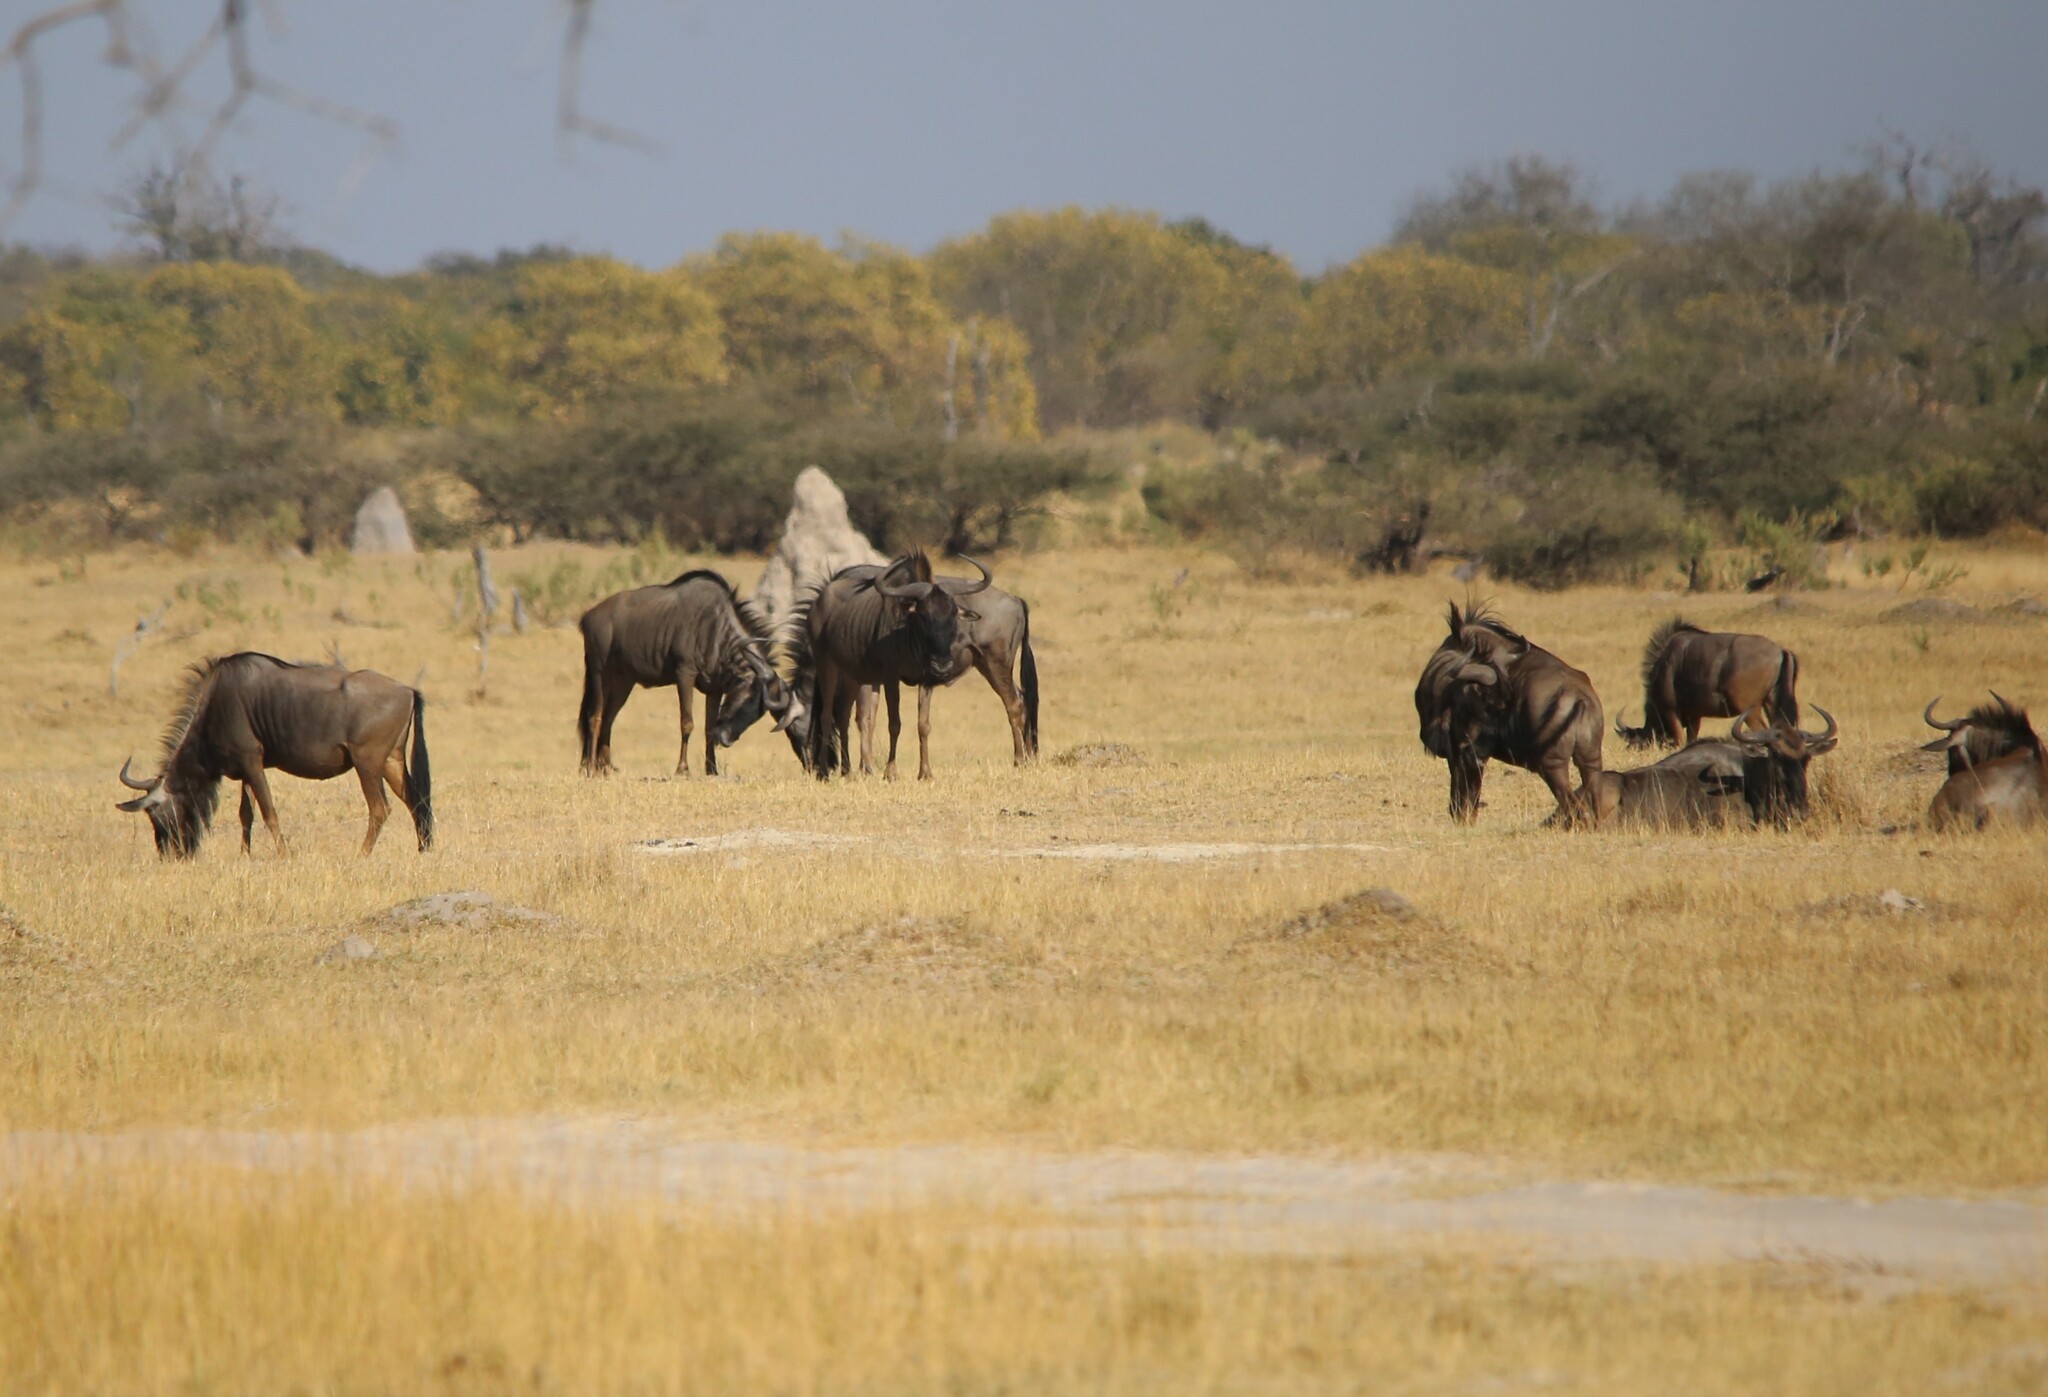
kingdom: Animalia
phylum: Chordata
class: Mammalia
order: Artiodactyla
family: Bovidae
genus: Connochaetes
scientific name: Connochaetes taurinus
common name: Blue wildebeest
